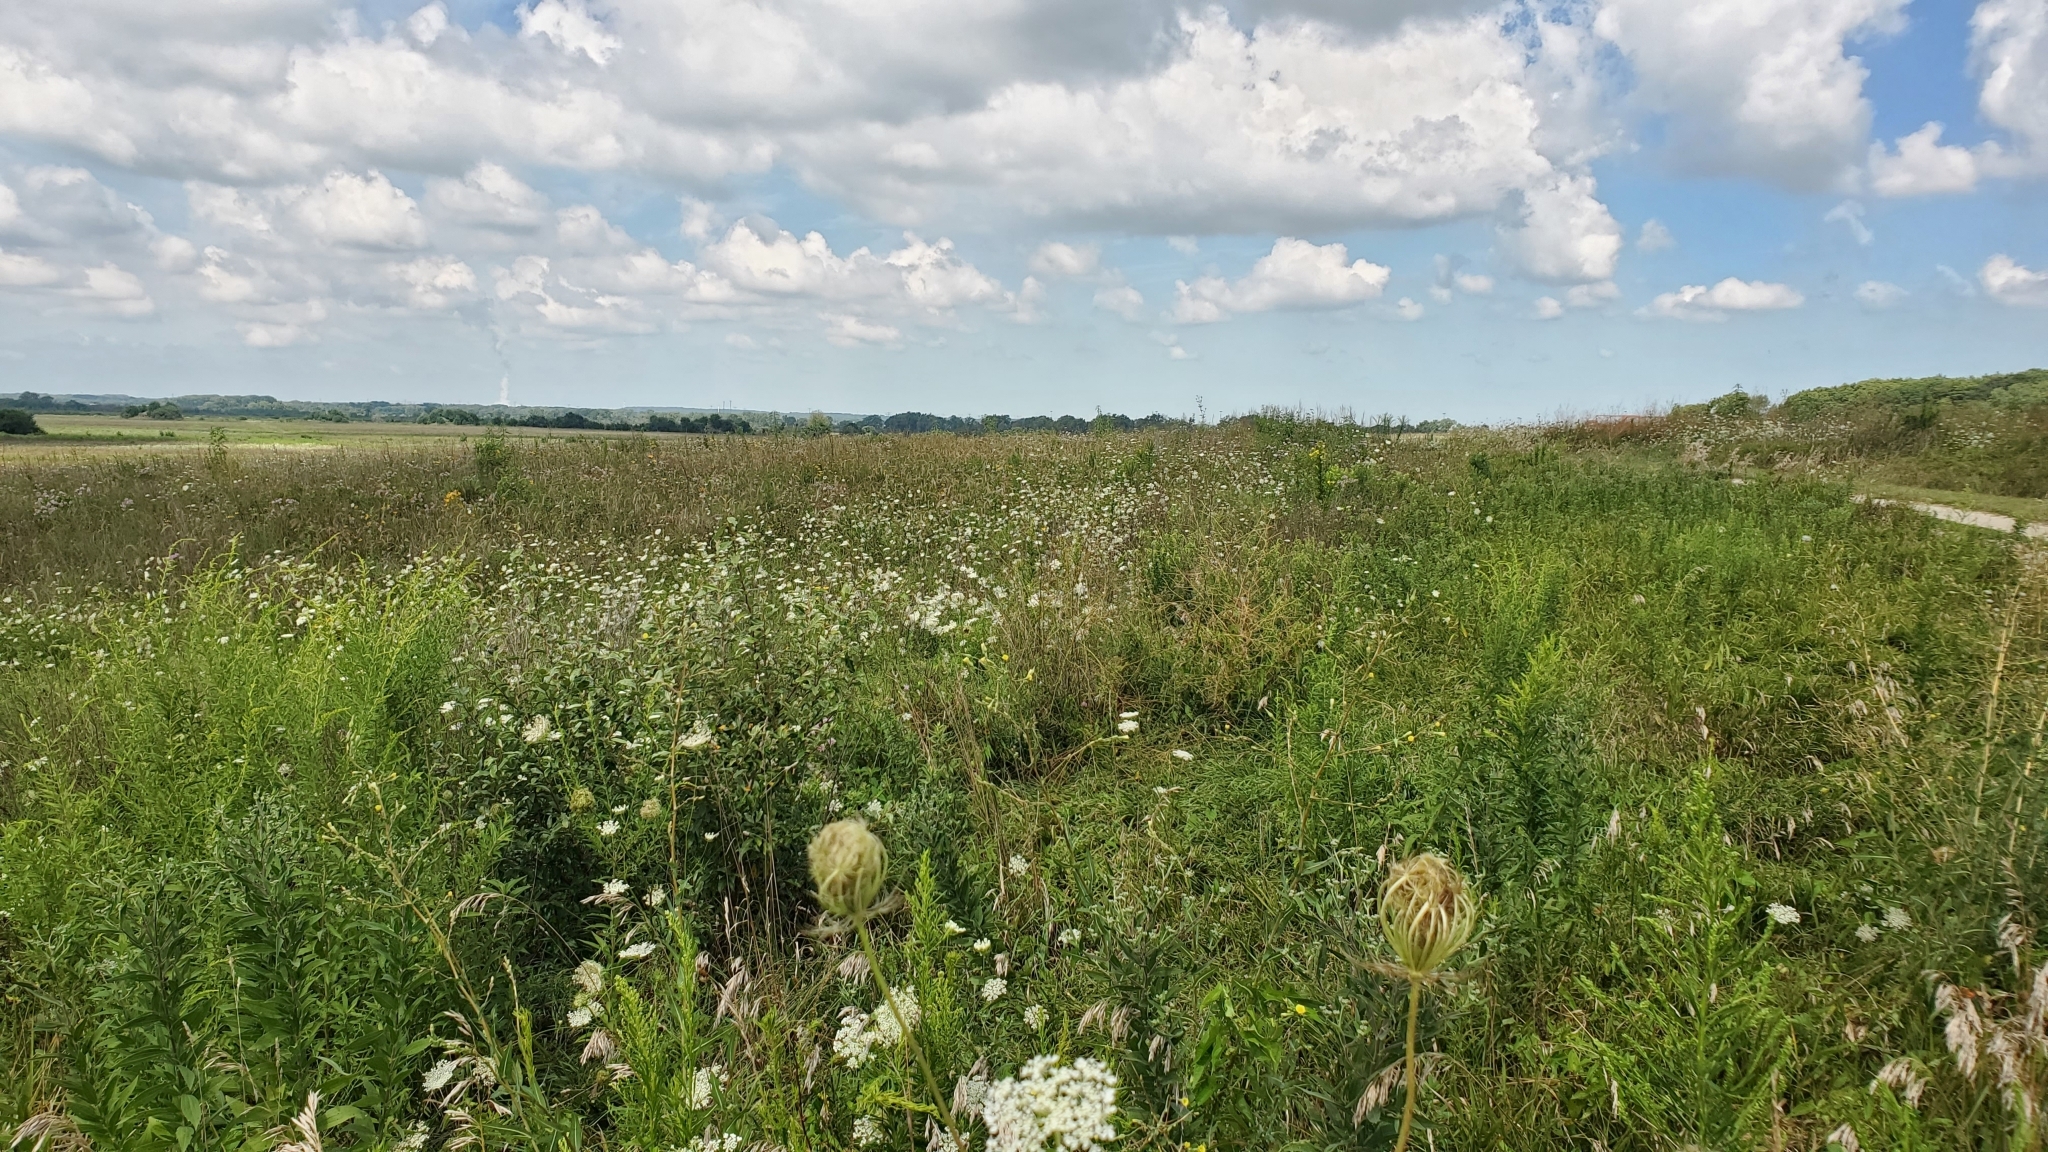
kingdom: Plantae
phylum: Tracheophyta
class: Magnoliopsida
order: Apiales
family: Apiaceae
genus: Daucus
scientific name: Daucus carota
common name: Wild carrot
